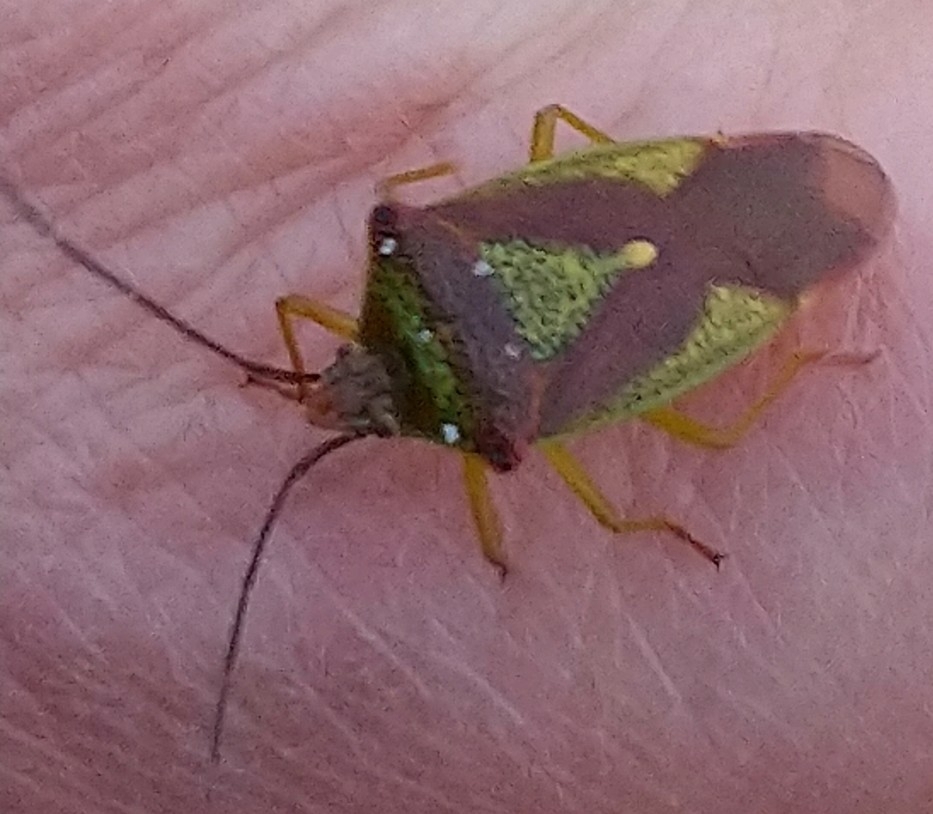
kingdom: Animalia
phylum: Arthropoda
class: Insecta
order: Hemiptera
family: Acanthosomatidae
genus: Acanthosoma
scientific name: Acanthosoma haemorrhoidale
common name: Hawthorn shieldbug
